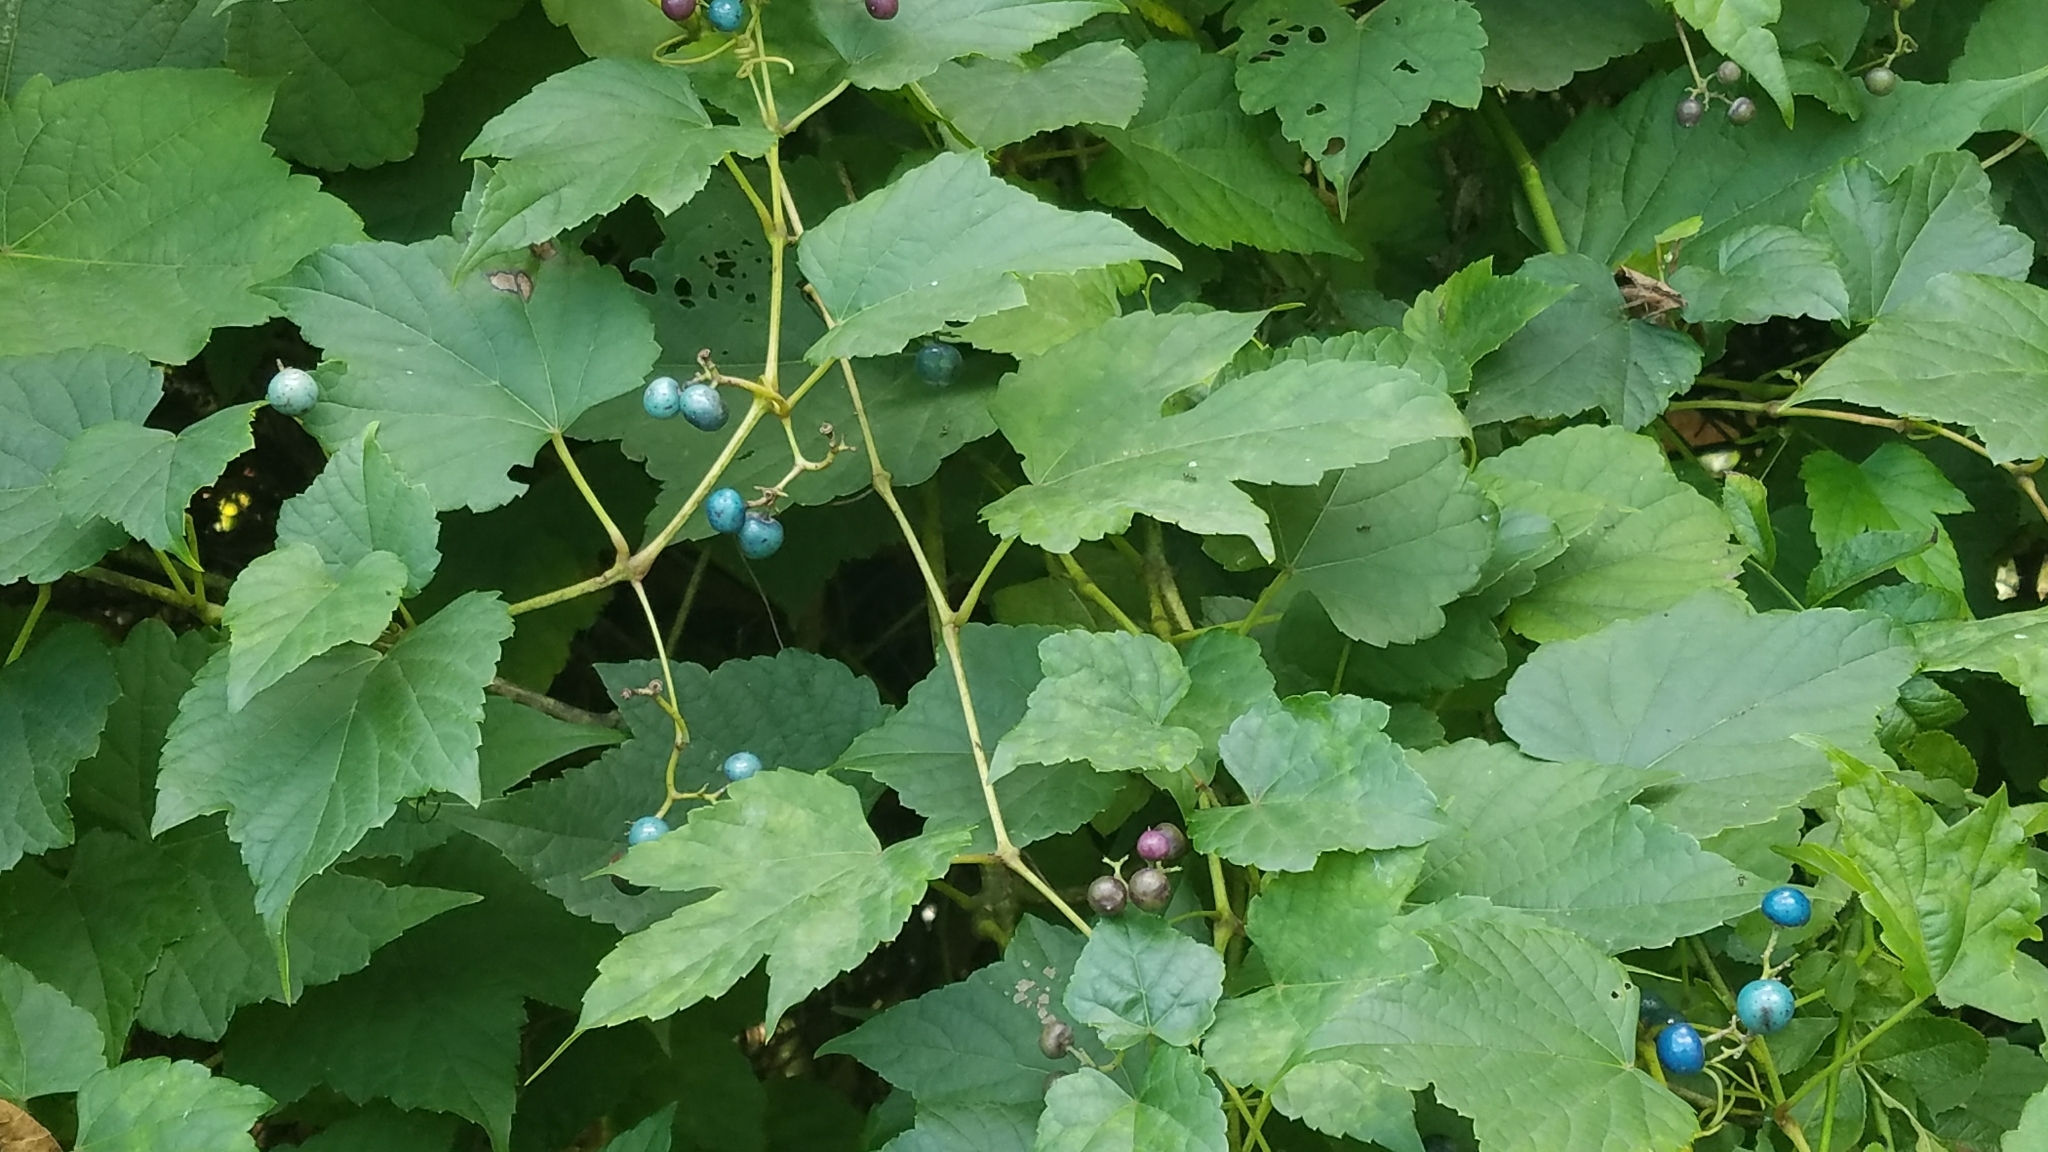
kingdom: Plantae
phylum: Tracheophyta
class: Magnoliopsida
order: Vitales
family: Vitaceae
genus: Ampelopsis
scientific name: Ampelopsis glandulosa
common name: Amur peppervine
